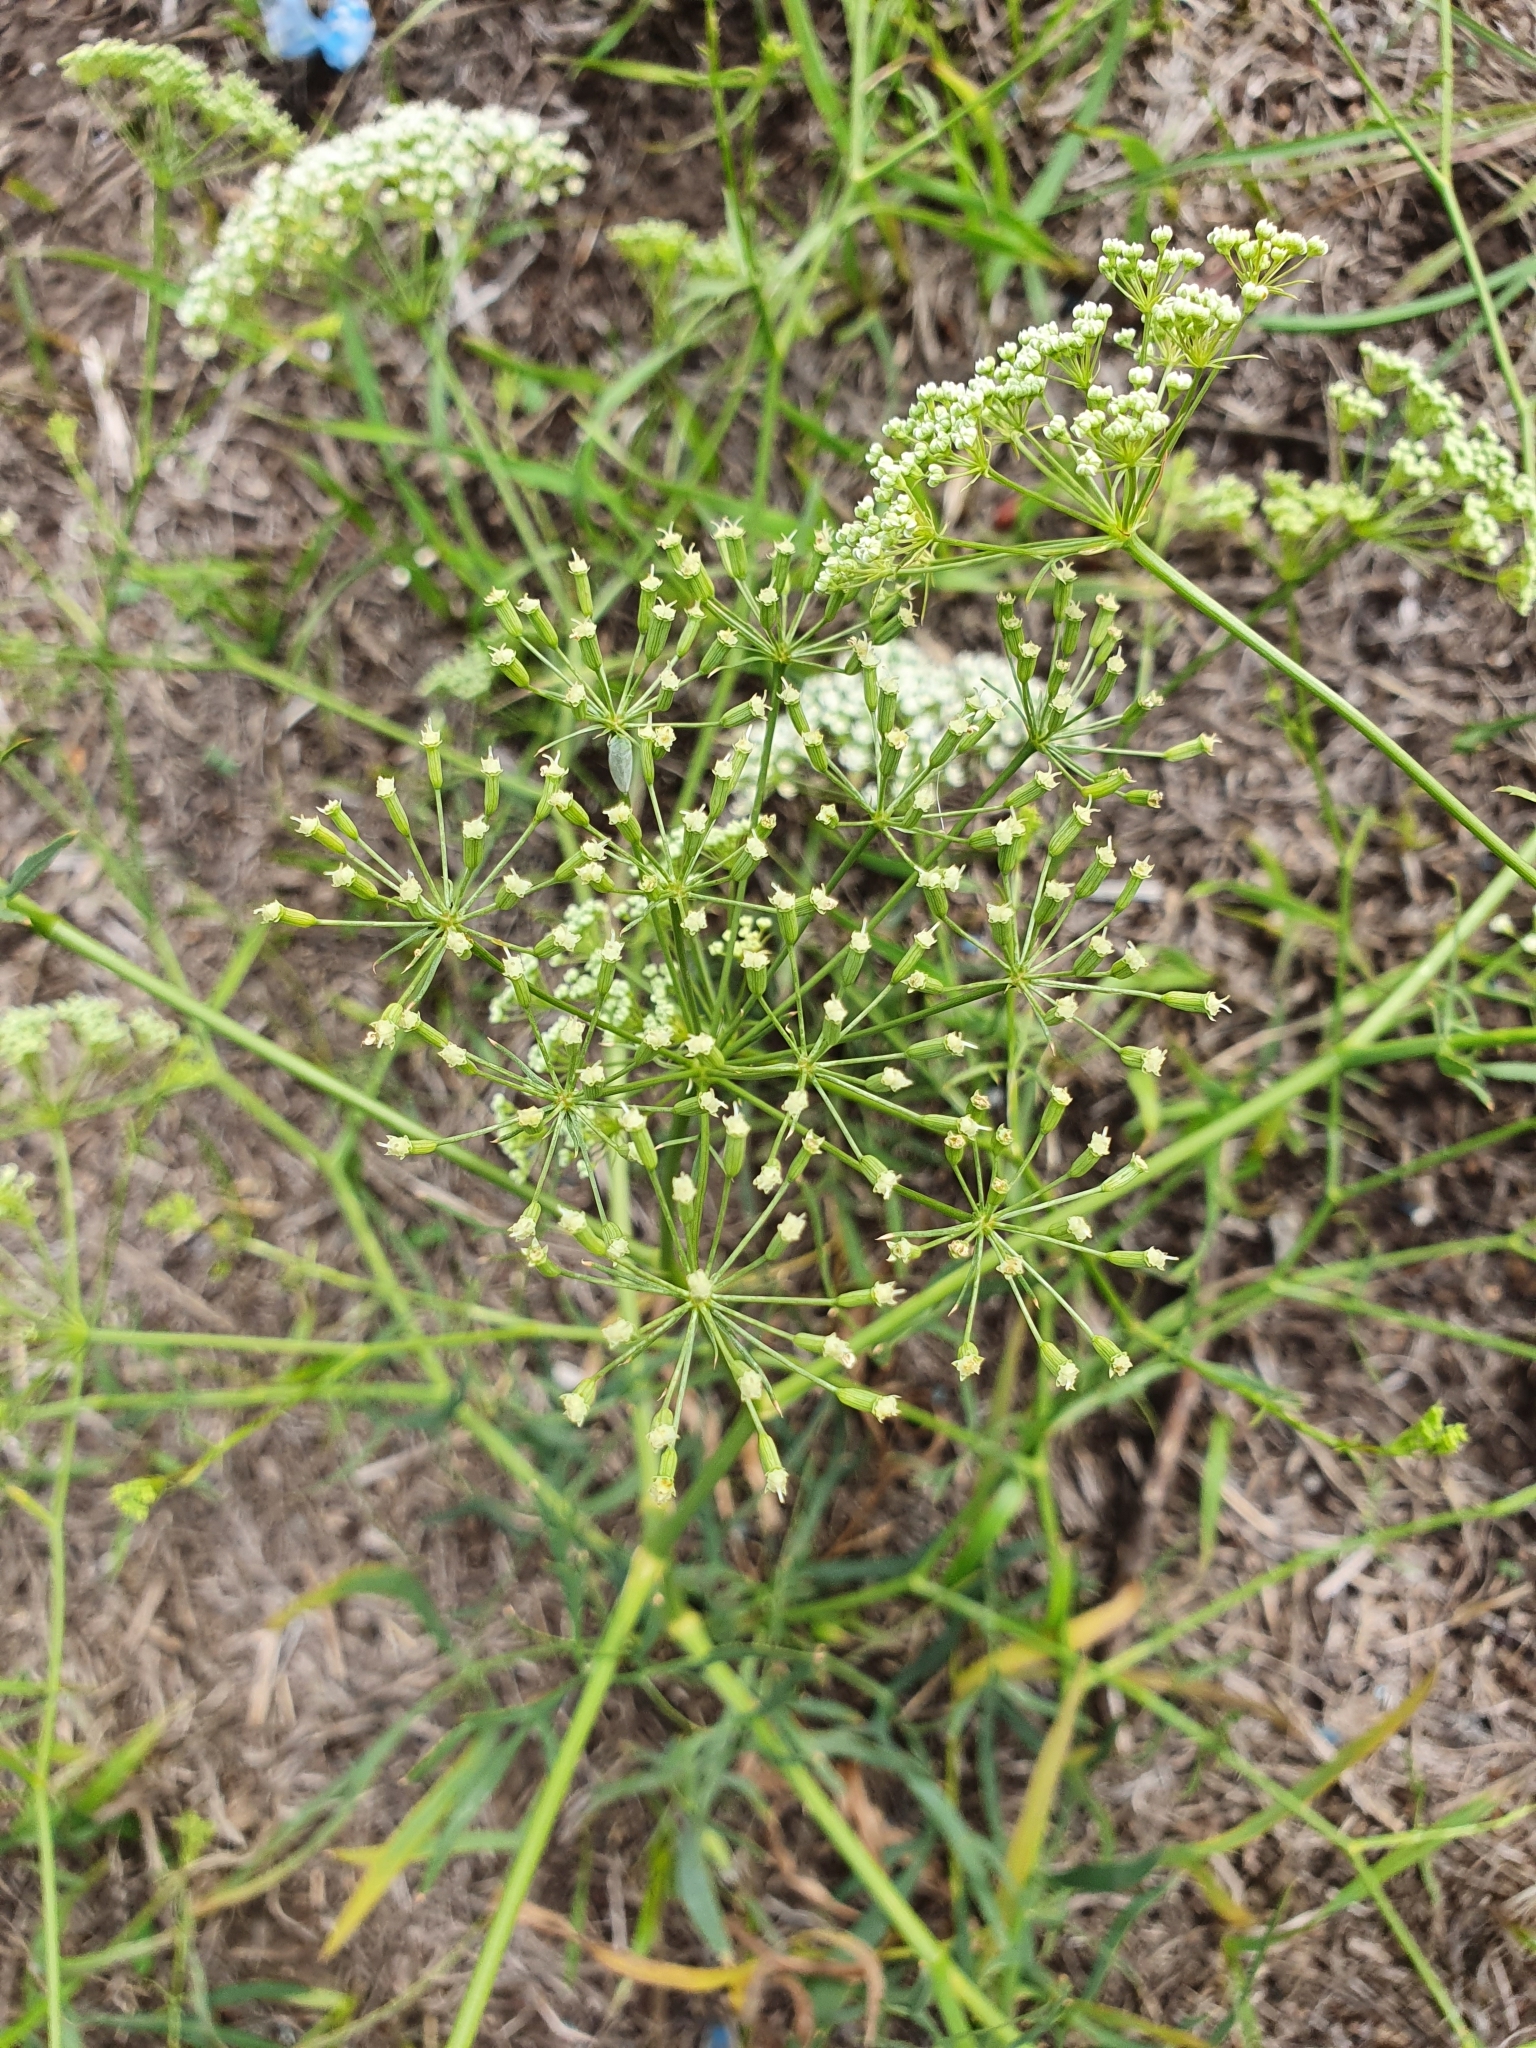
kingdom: Plantae
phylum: Tracheophyta
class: Magnoliopsida
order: Apiales
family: Apiaceae
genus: Falcaria
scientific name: Falcaria vulgaris
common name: Longleaf
